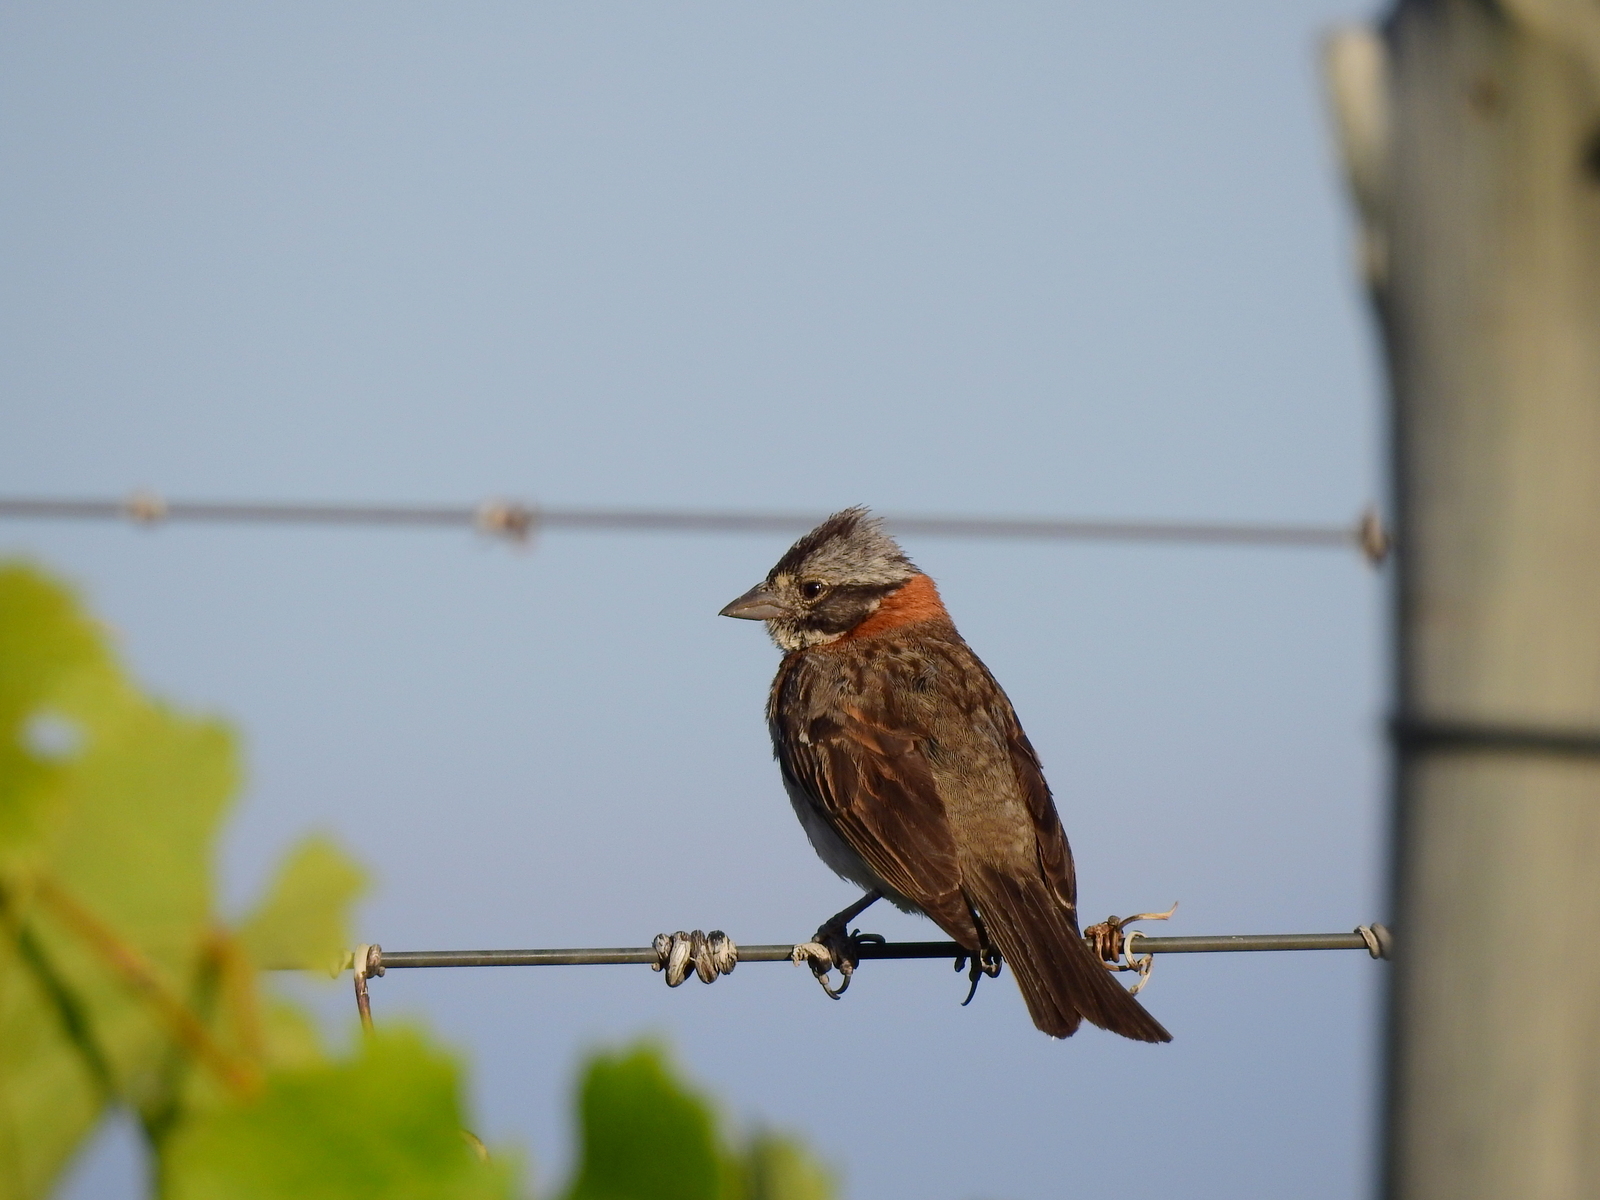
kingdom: Animalia
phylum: Chordata
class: Aves
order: Passeriformes
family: Passerellidae
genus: Zonotrichia
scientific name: Zonotrichia capensis
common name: Rufous-collared sparrow
